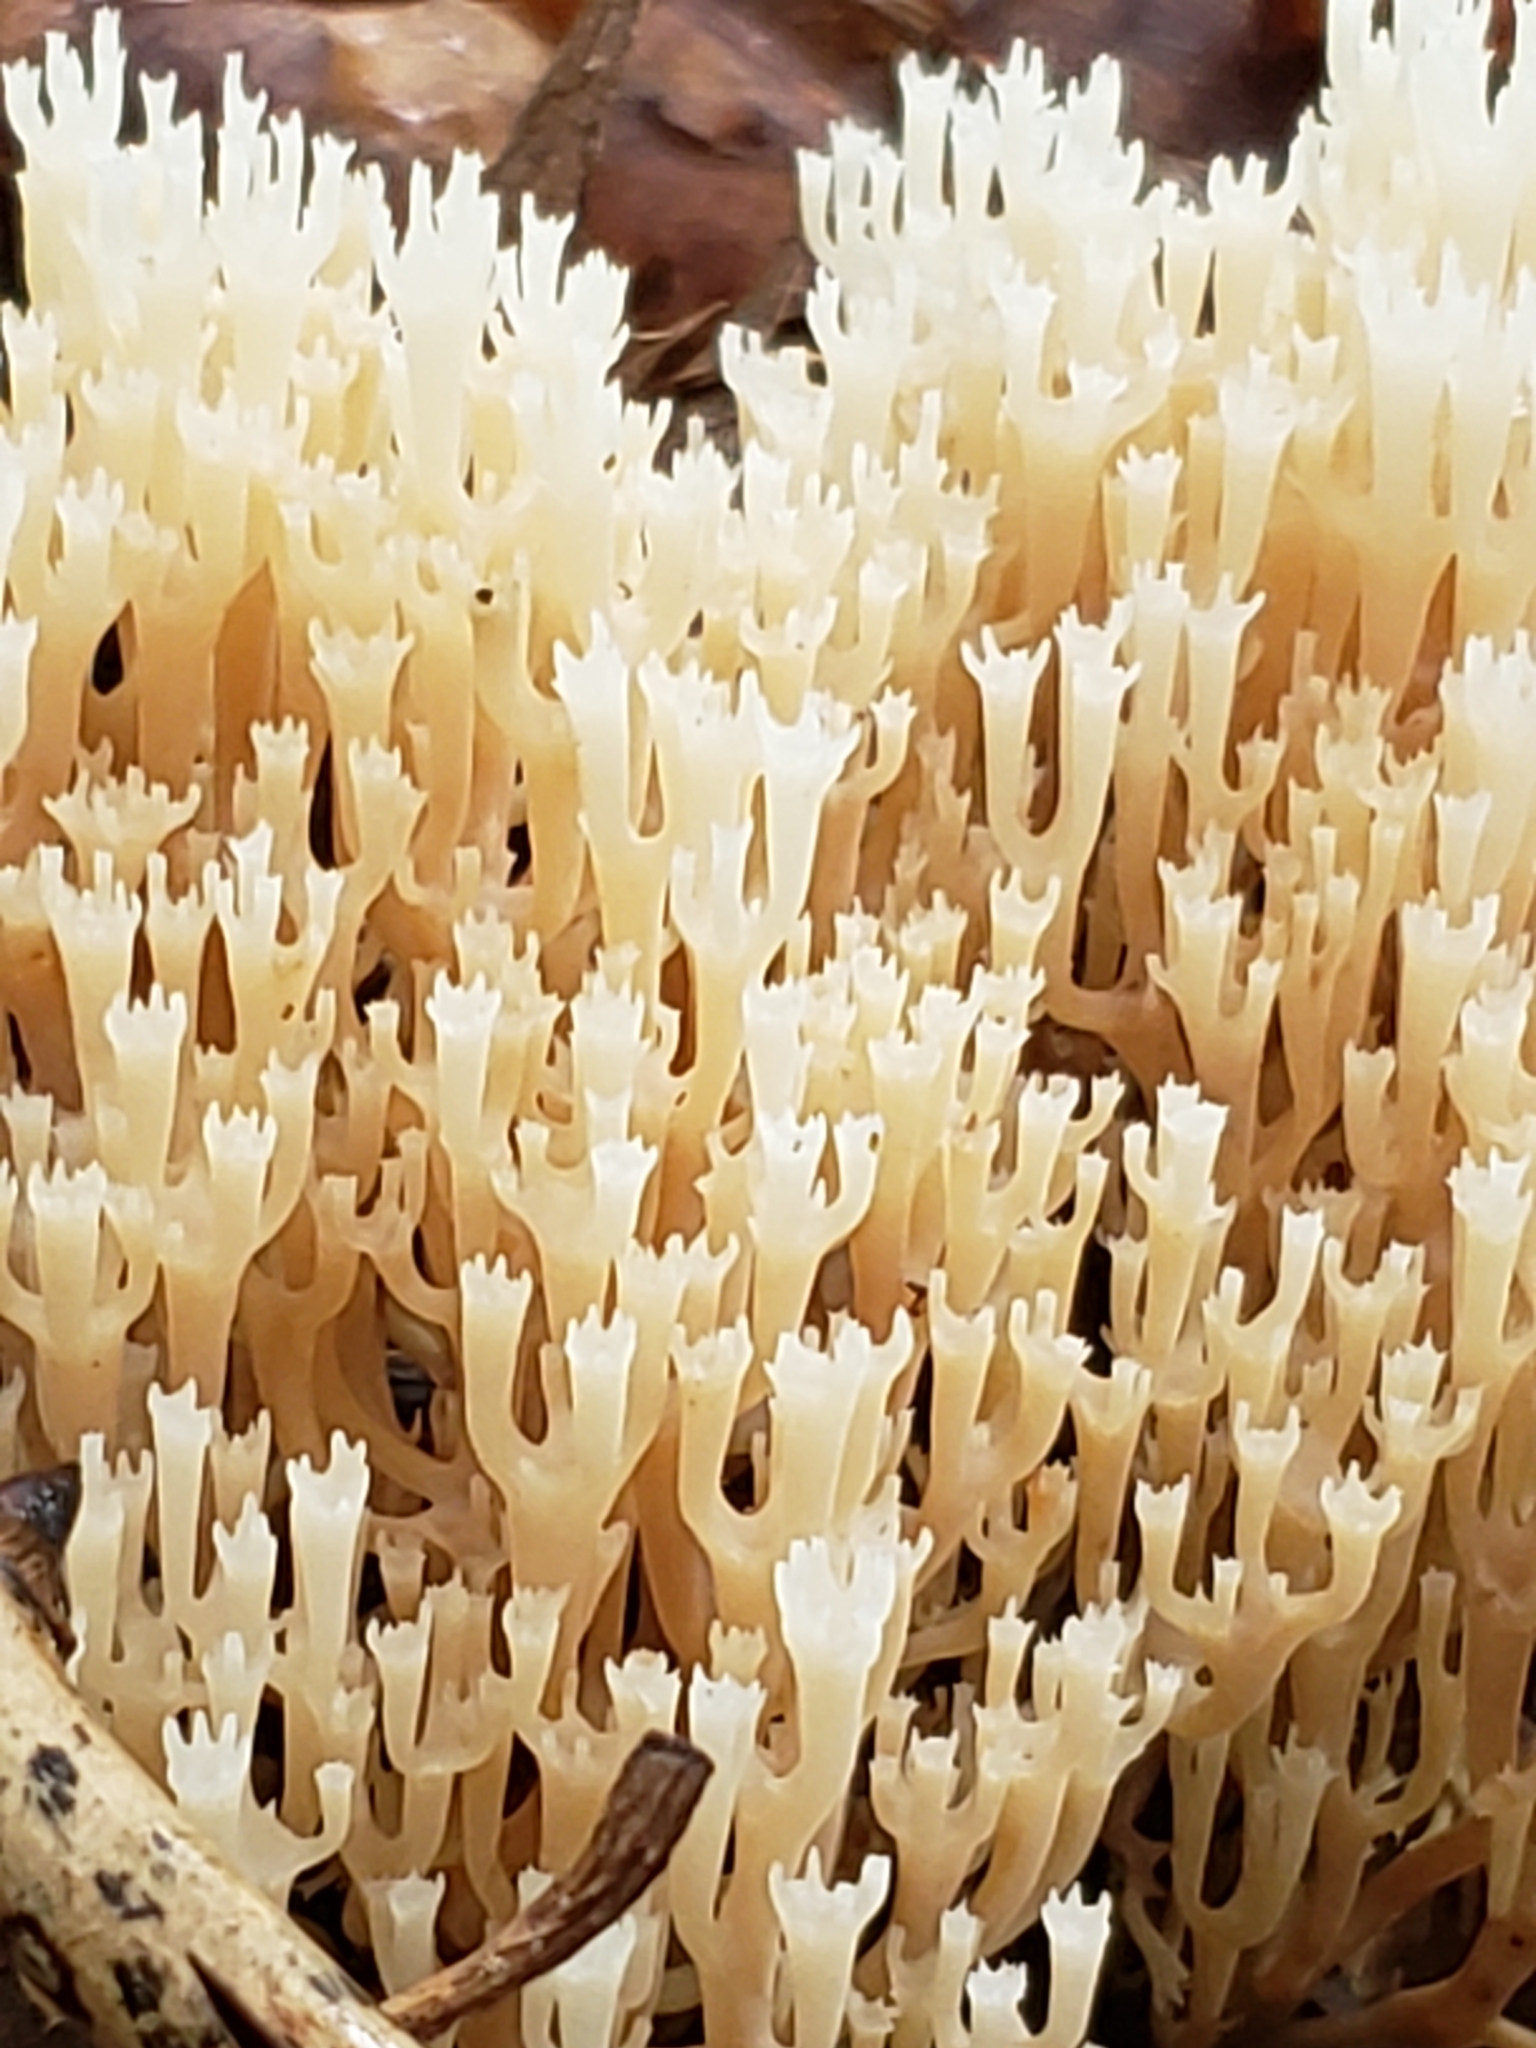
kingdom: Fungi
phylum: Basidiomycota
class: Agaricomycetes
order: Russulales
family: Auriscalpiaceae
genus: Artomyces
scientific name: Artomyces pyxidatus
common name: Crown-tipped coral fungus
